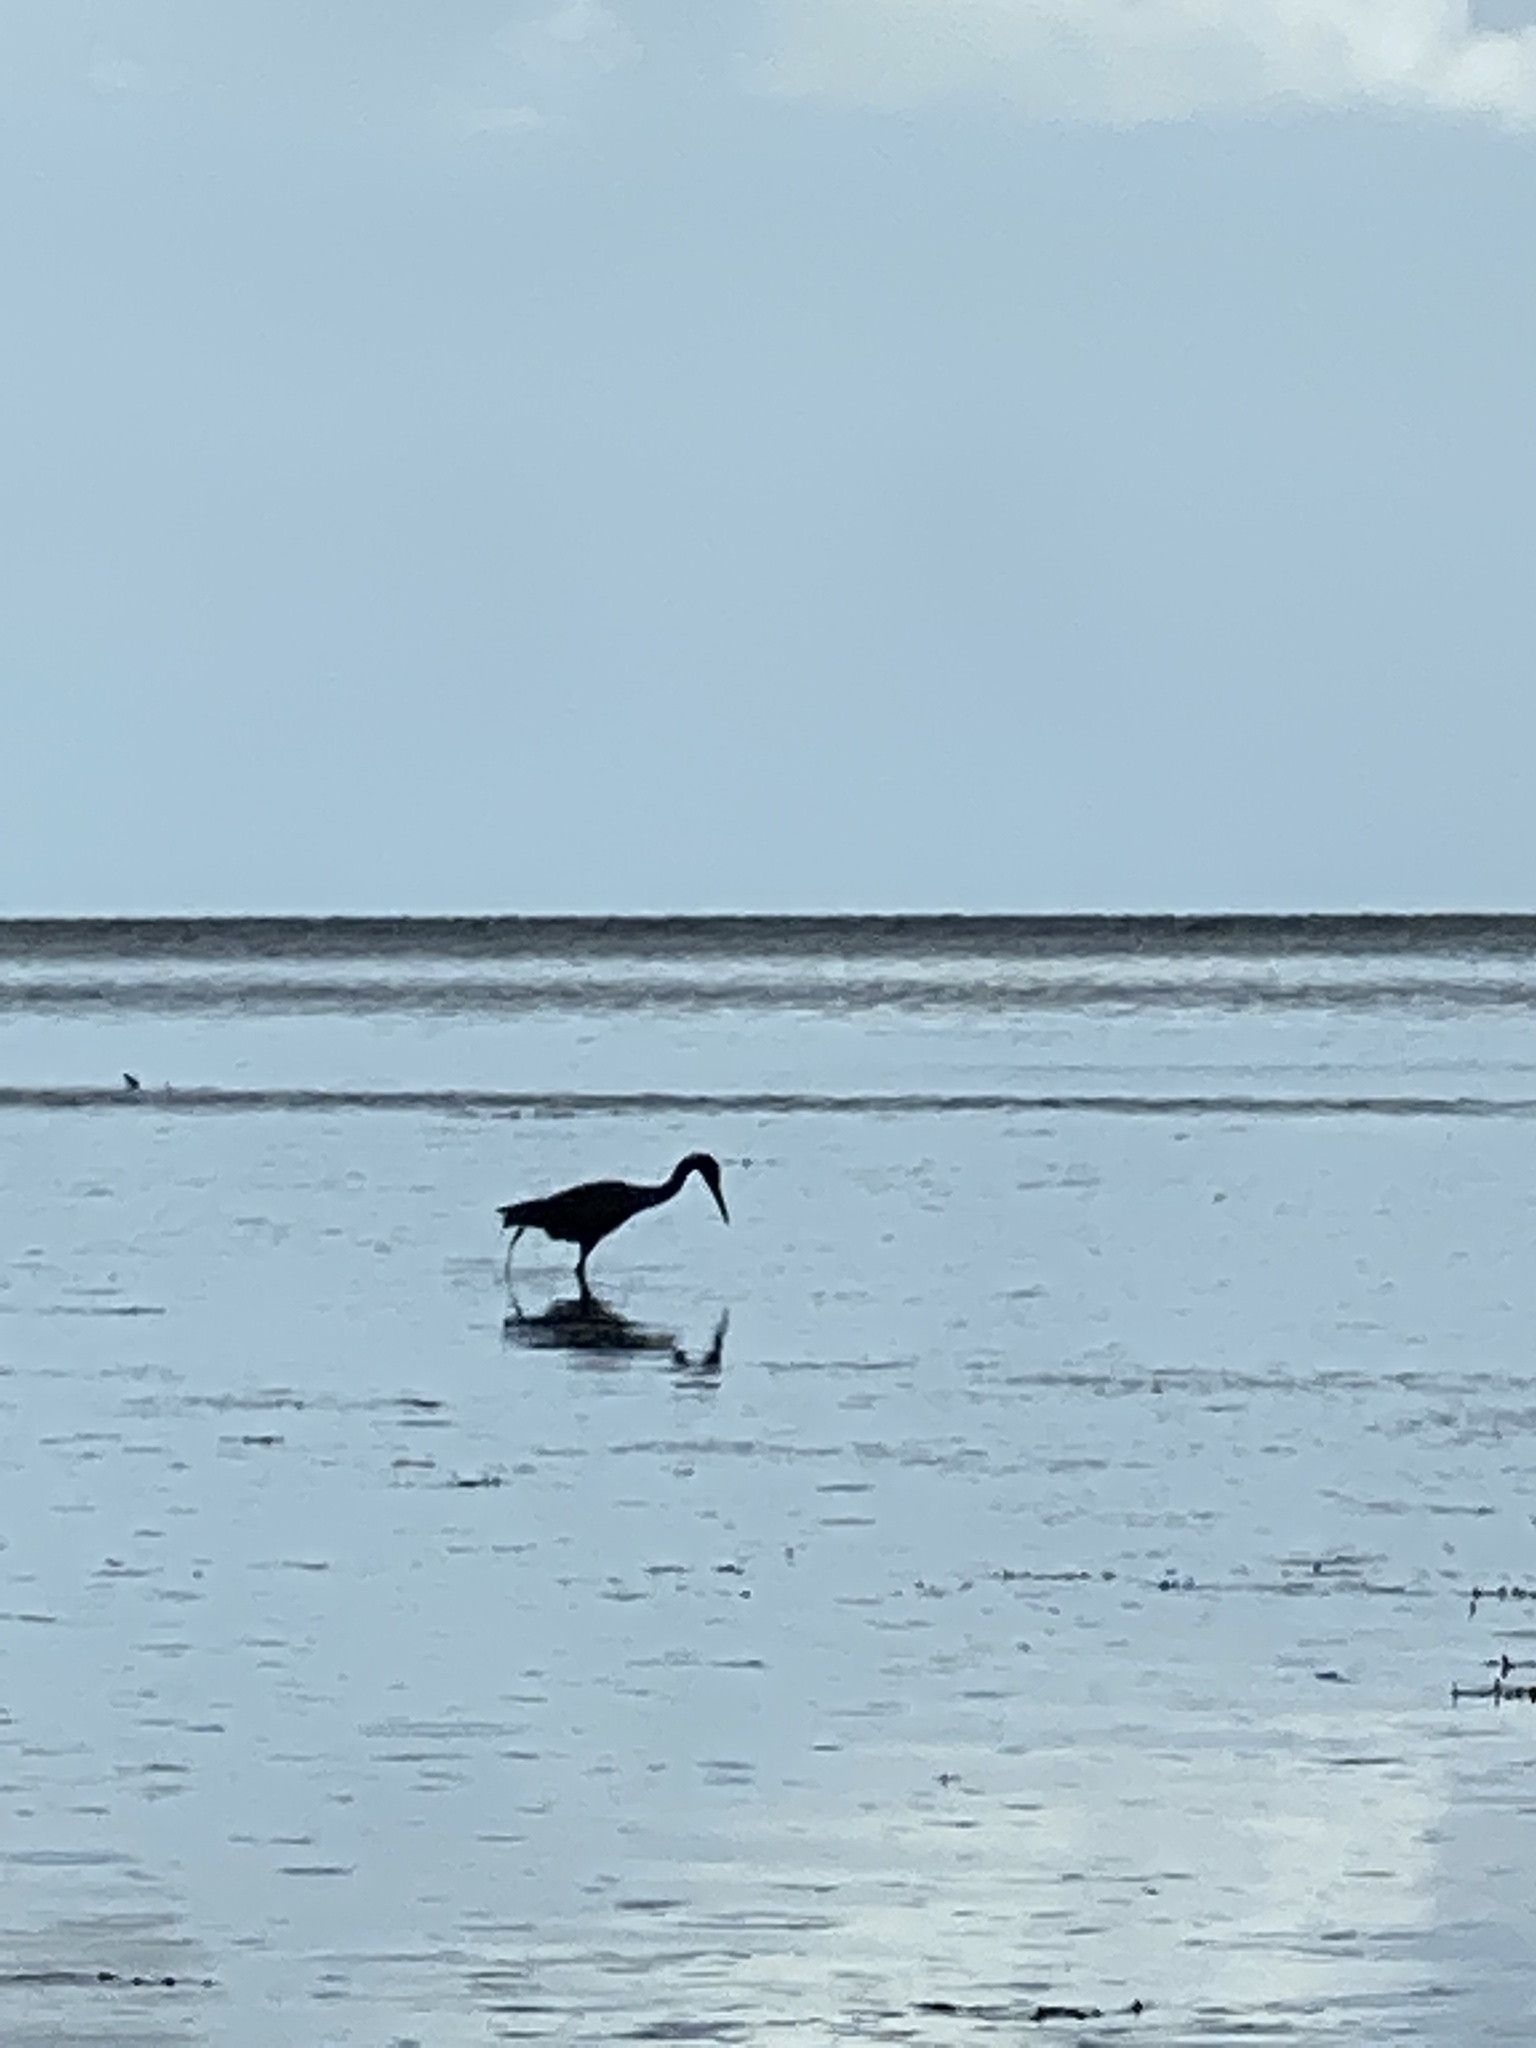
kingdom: Animalia
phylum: Chordata
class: Aves
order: Pelecaniformes
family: Ardeidae
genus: Egretta
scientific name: Egretta caerulea
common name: Little blue heron
